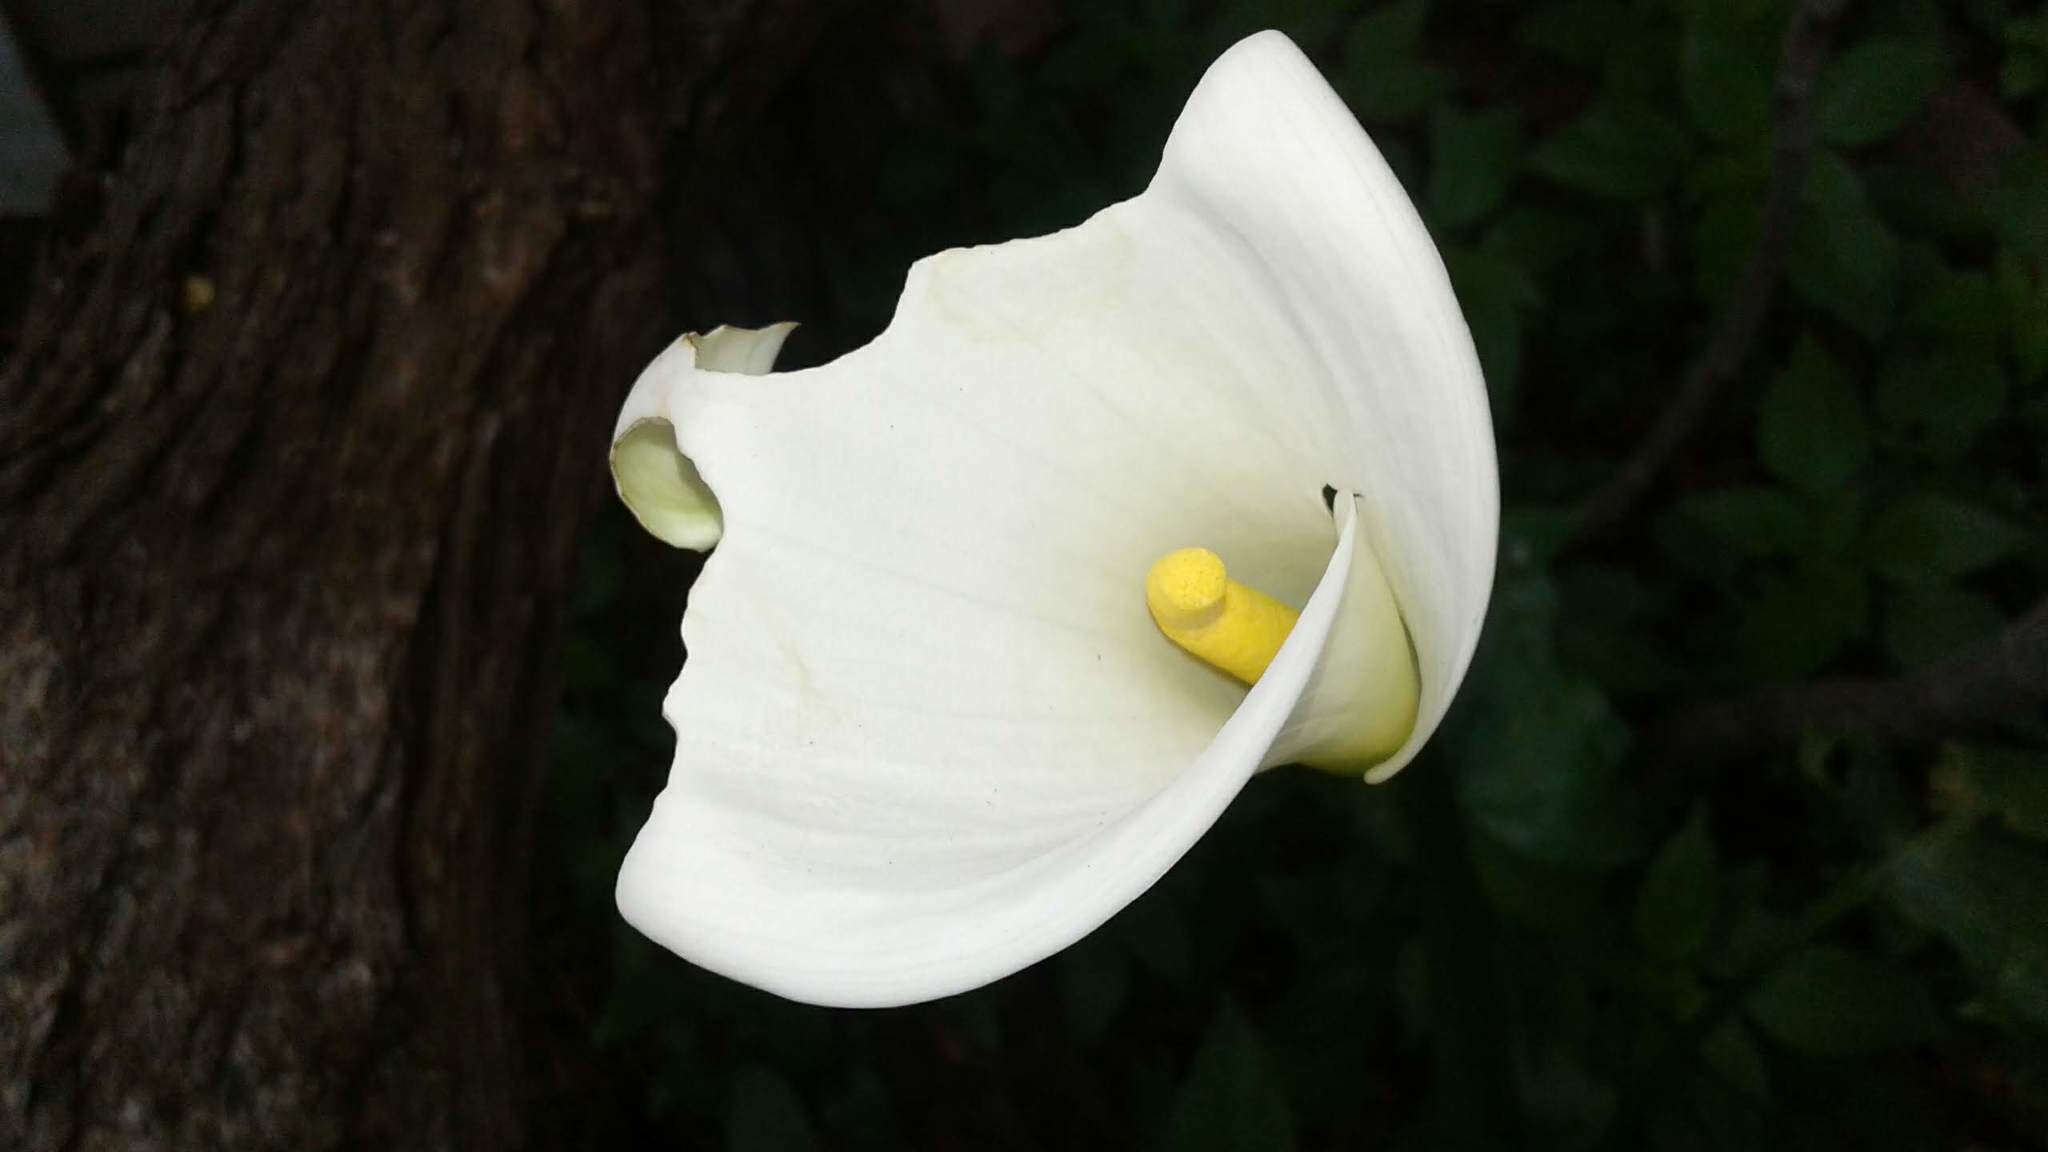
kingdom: Plantae
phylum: Tracheophyta
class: Liliopsida
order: Alismatales
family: Araceae
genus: Zantedeschia
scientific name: Zantedeschia aethiopica
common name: Altar-lily
